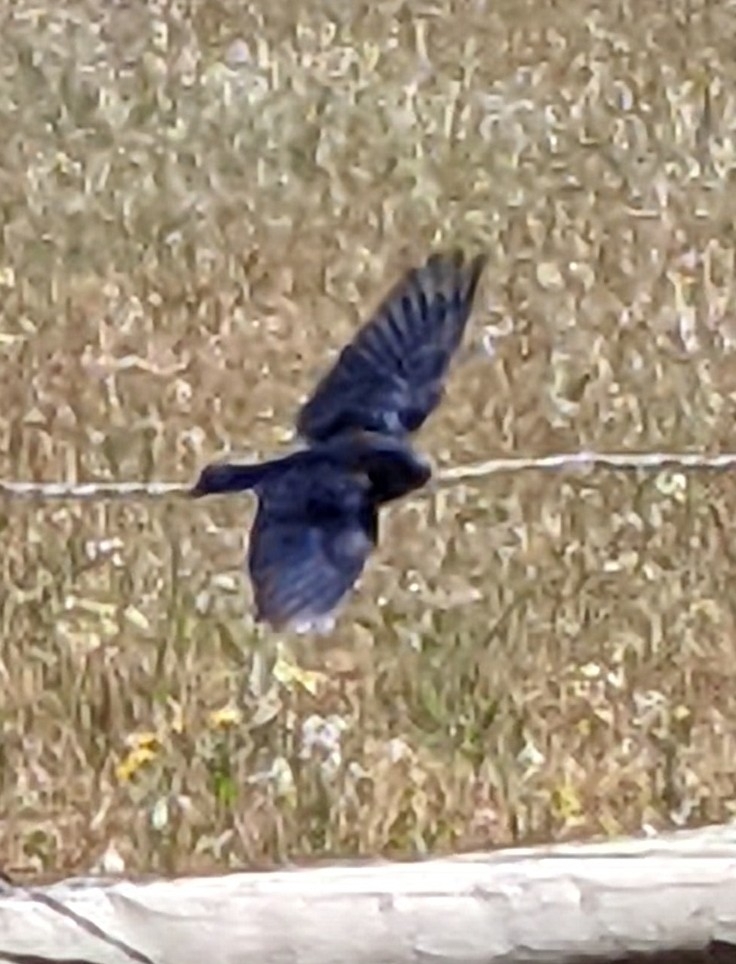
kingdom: Animalia
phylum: Chordata
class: Aves
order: Passeriformes
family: Hirundinidae
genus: Progne
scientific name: Progne subis
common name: Purple martin
